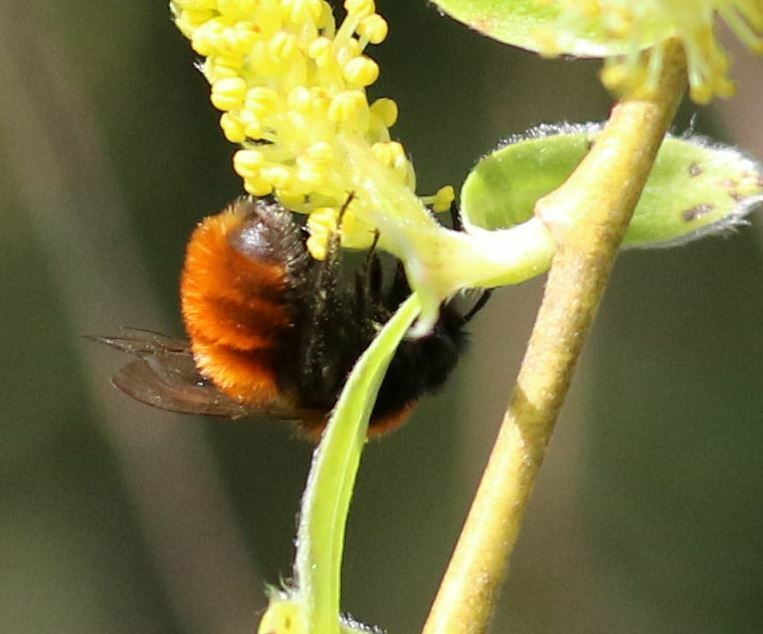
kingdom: Animalia
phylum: Arthropoda
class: Insecta
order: Hymenoptera
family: Andrenidae
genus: Andrena
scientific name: Andrena fulva
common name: Tawny mining bee
